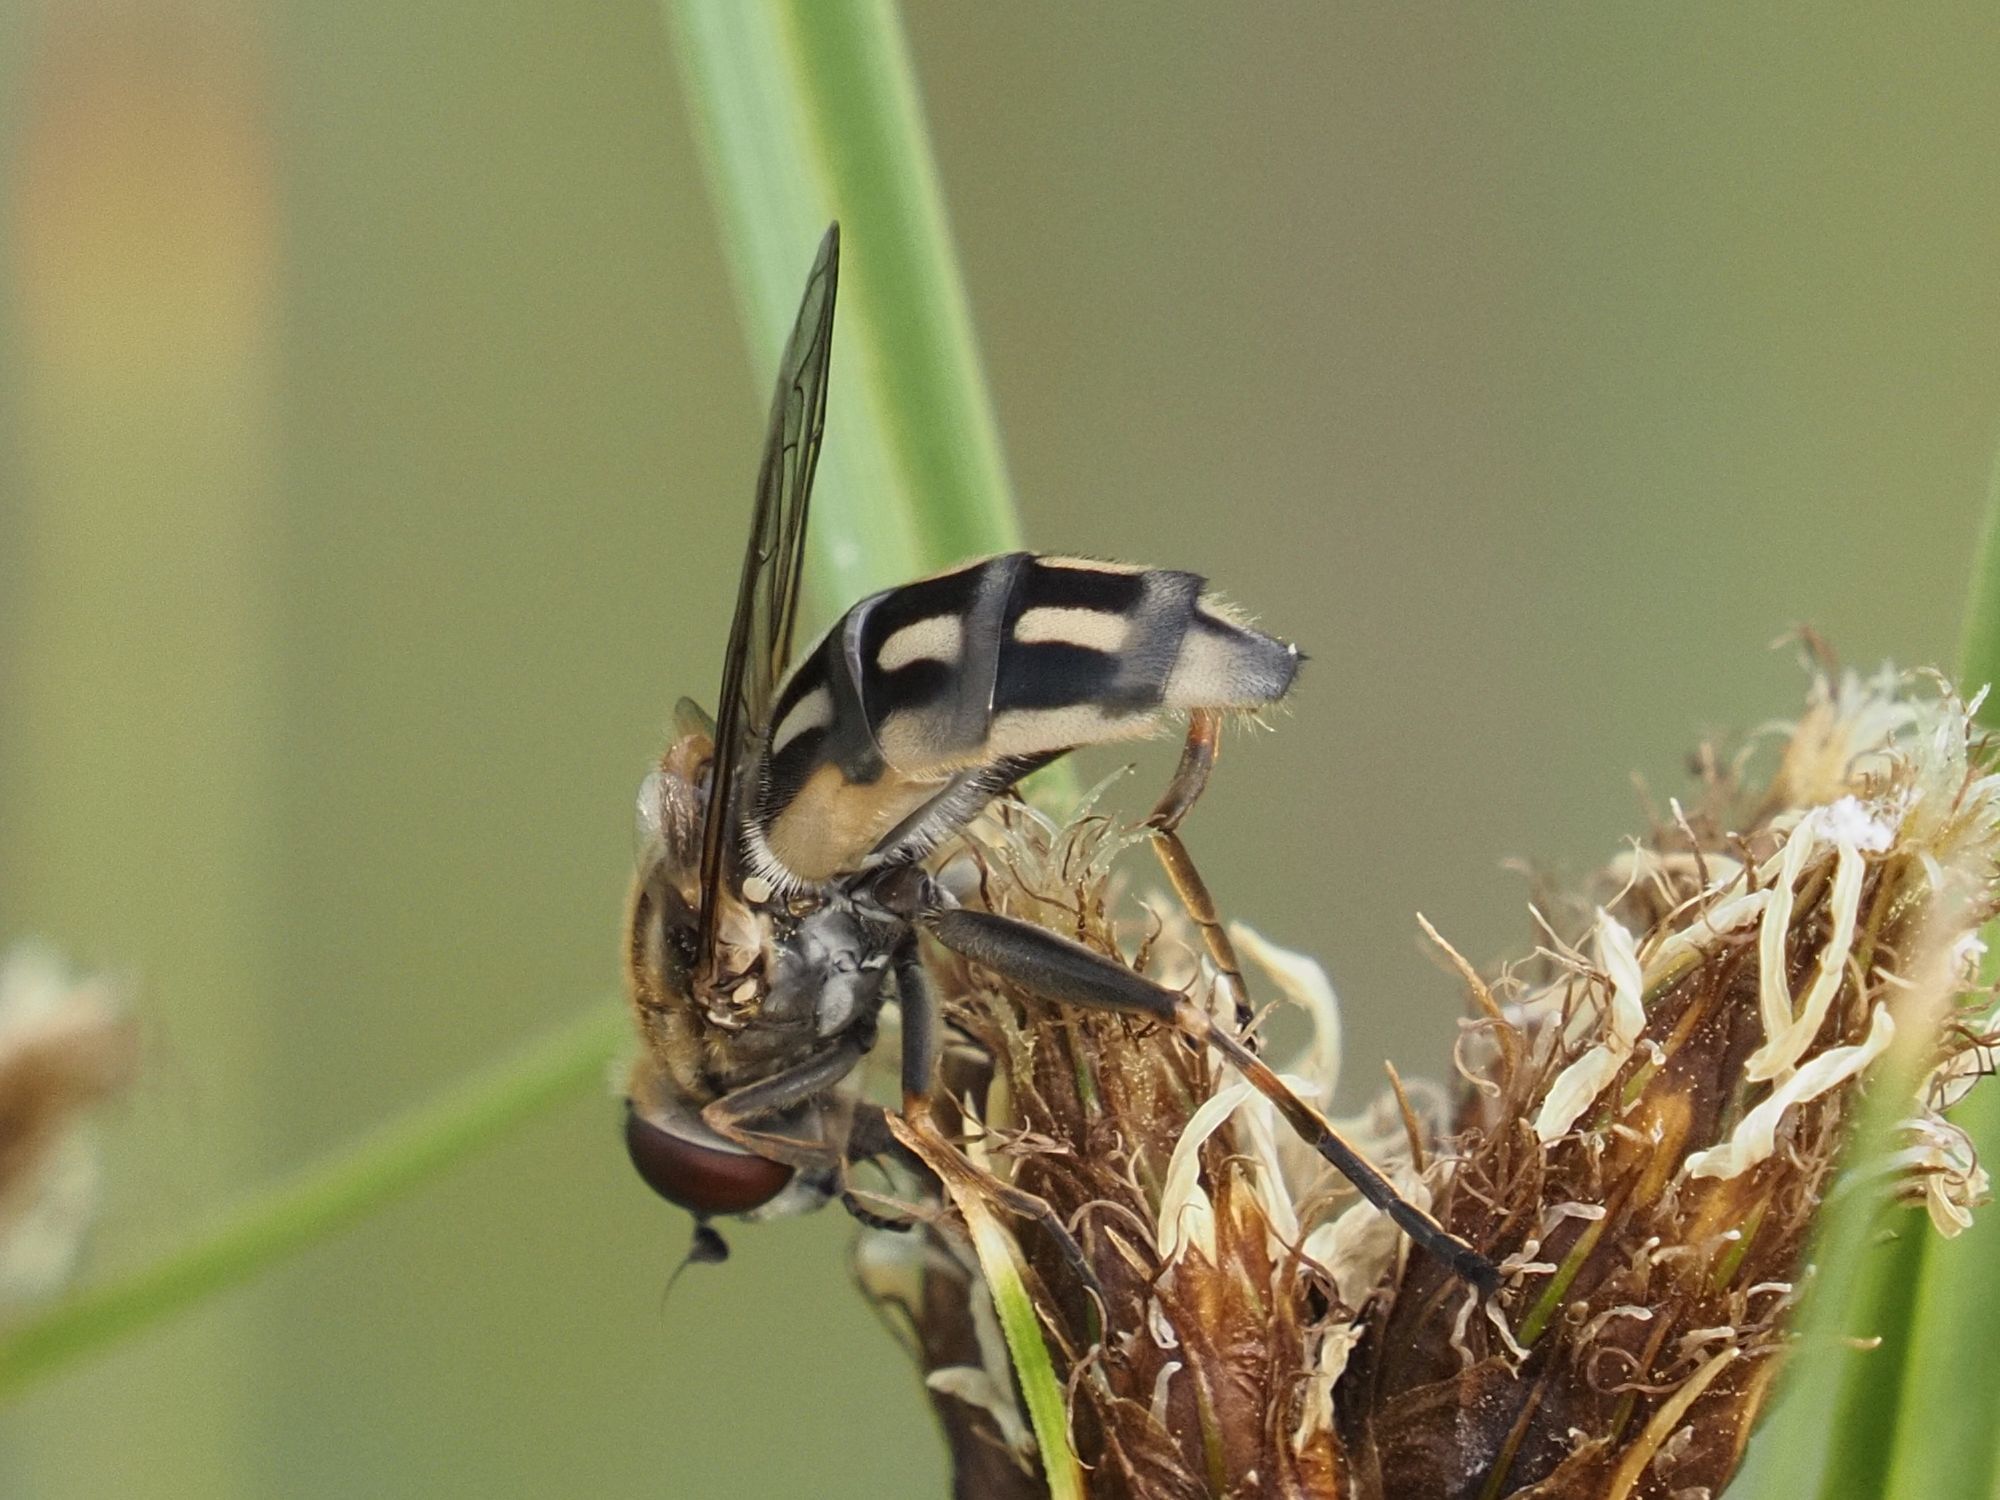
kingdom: Animalia
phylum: Arthropoda
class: Insecta
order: Diptera
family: Syrphidae
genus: Lejops
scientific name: Lejops vittatus
